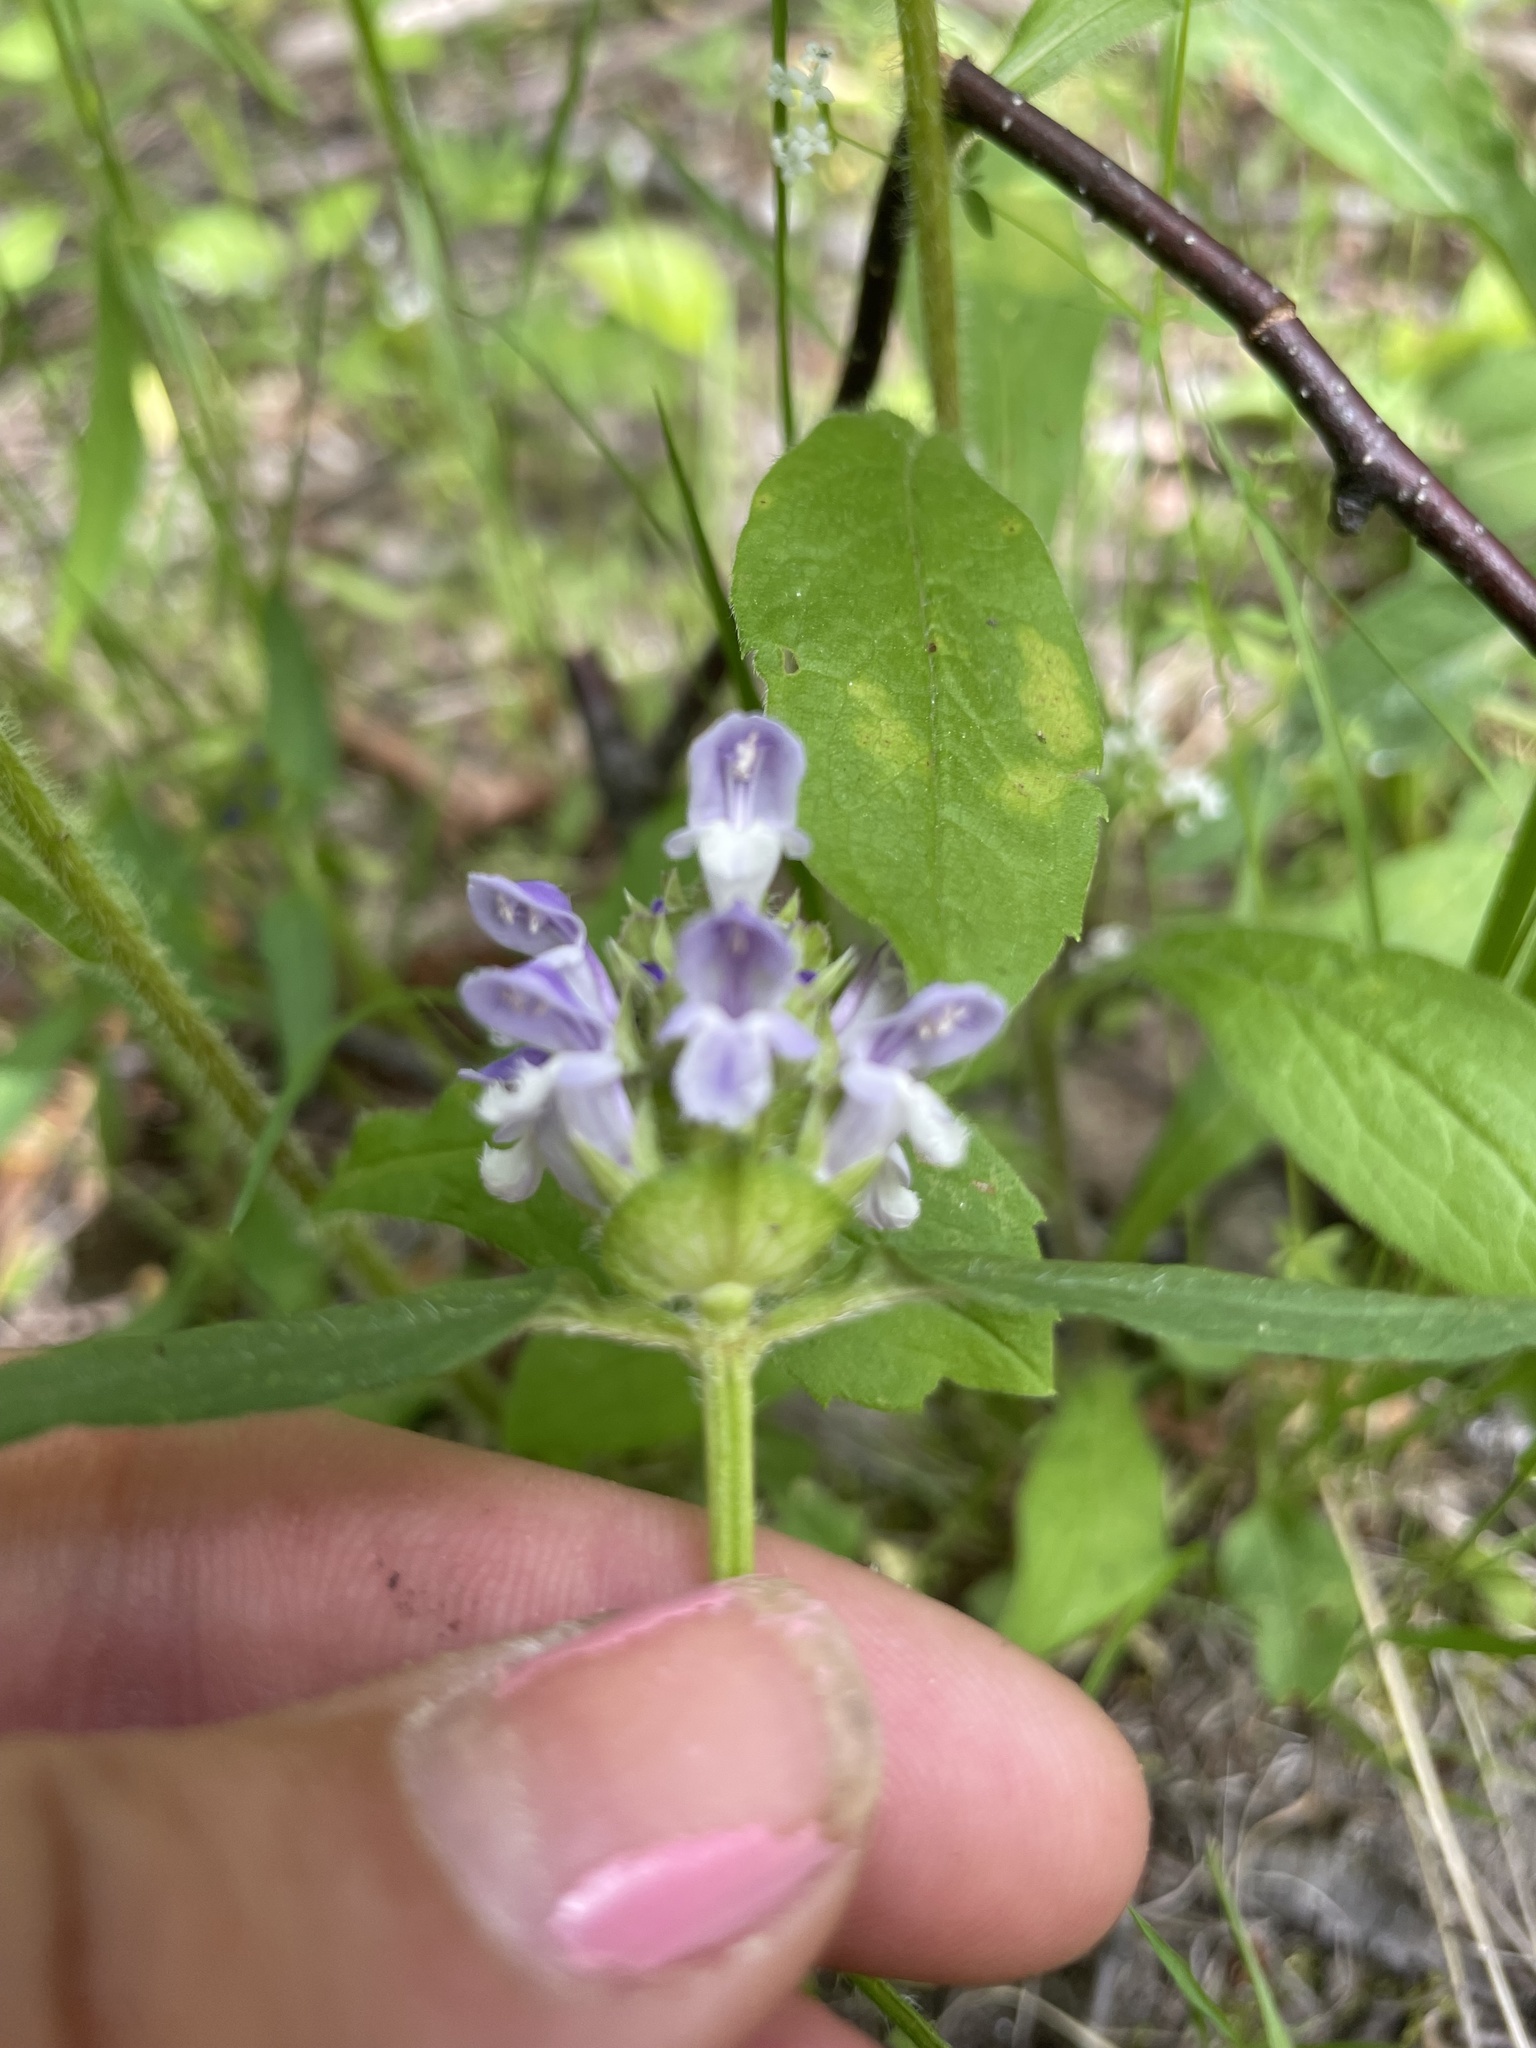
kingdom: Plantae
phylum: Tracheophyta
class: Magnoliopsida
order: Lamiales
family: Lamiaceae
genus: Prunella
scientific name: Prunella vulgaris
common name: Heal-all
